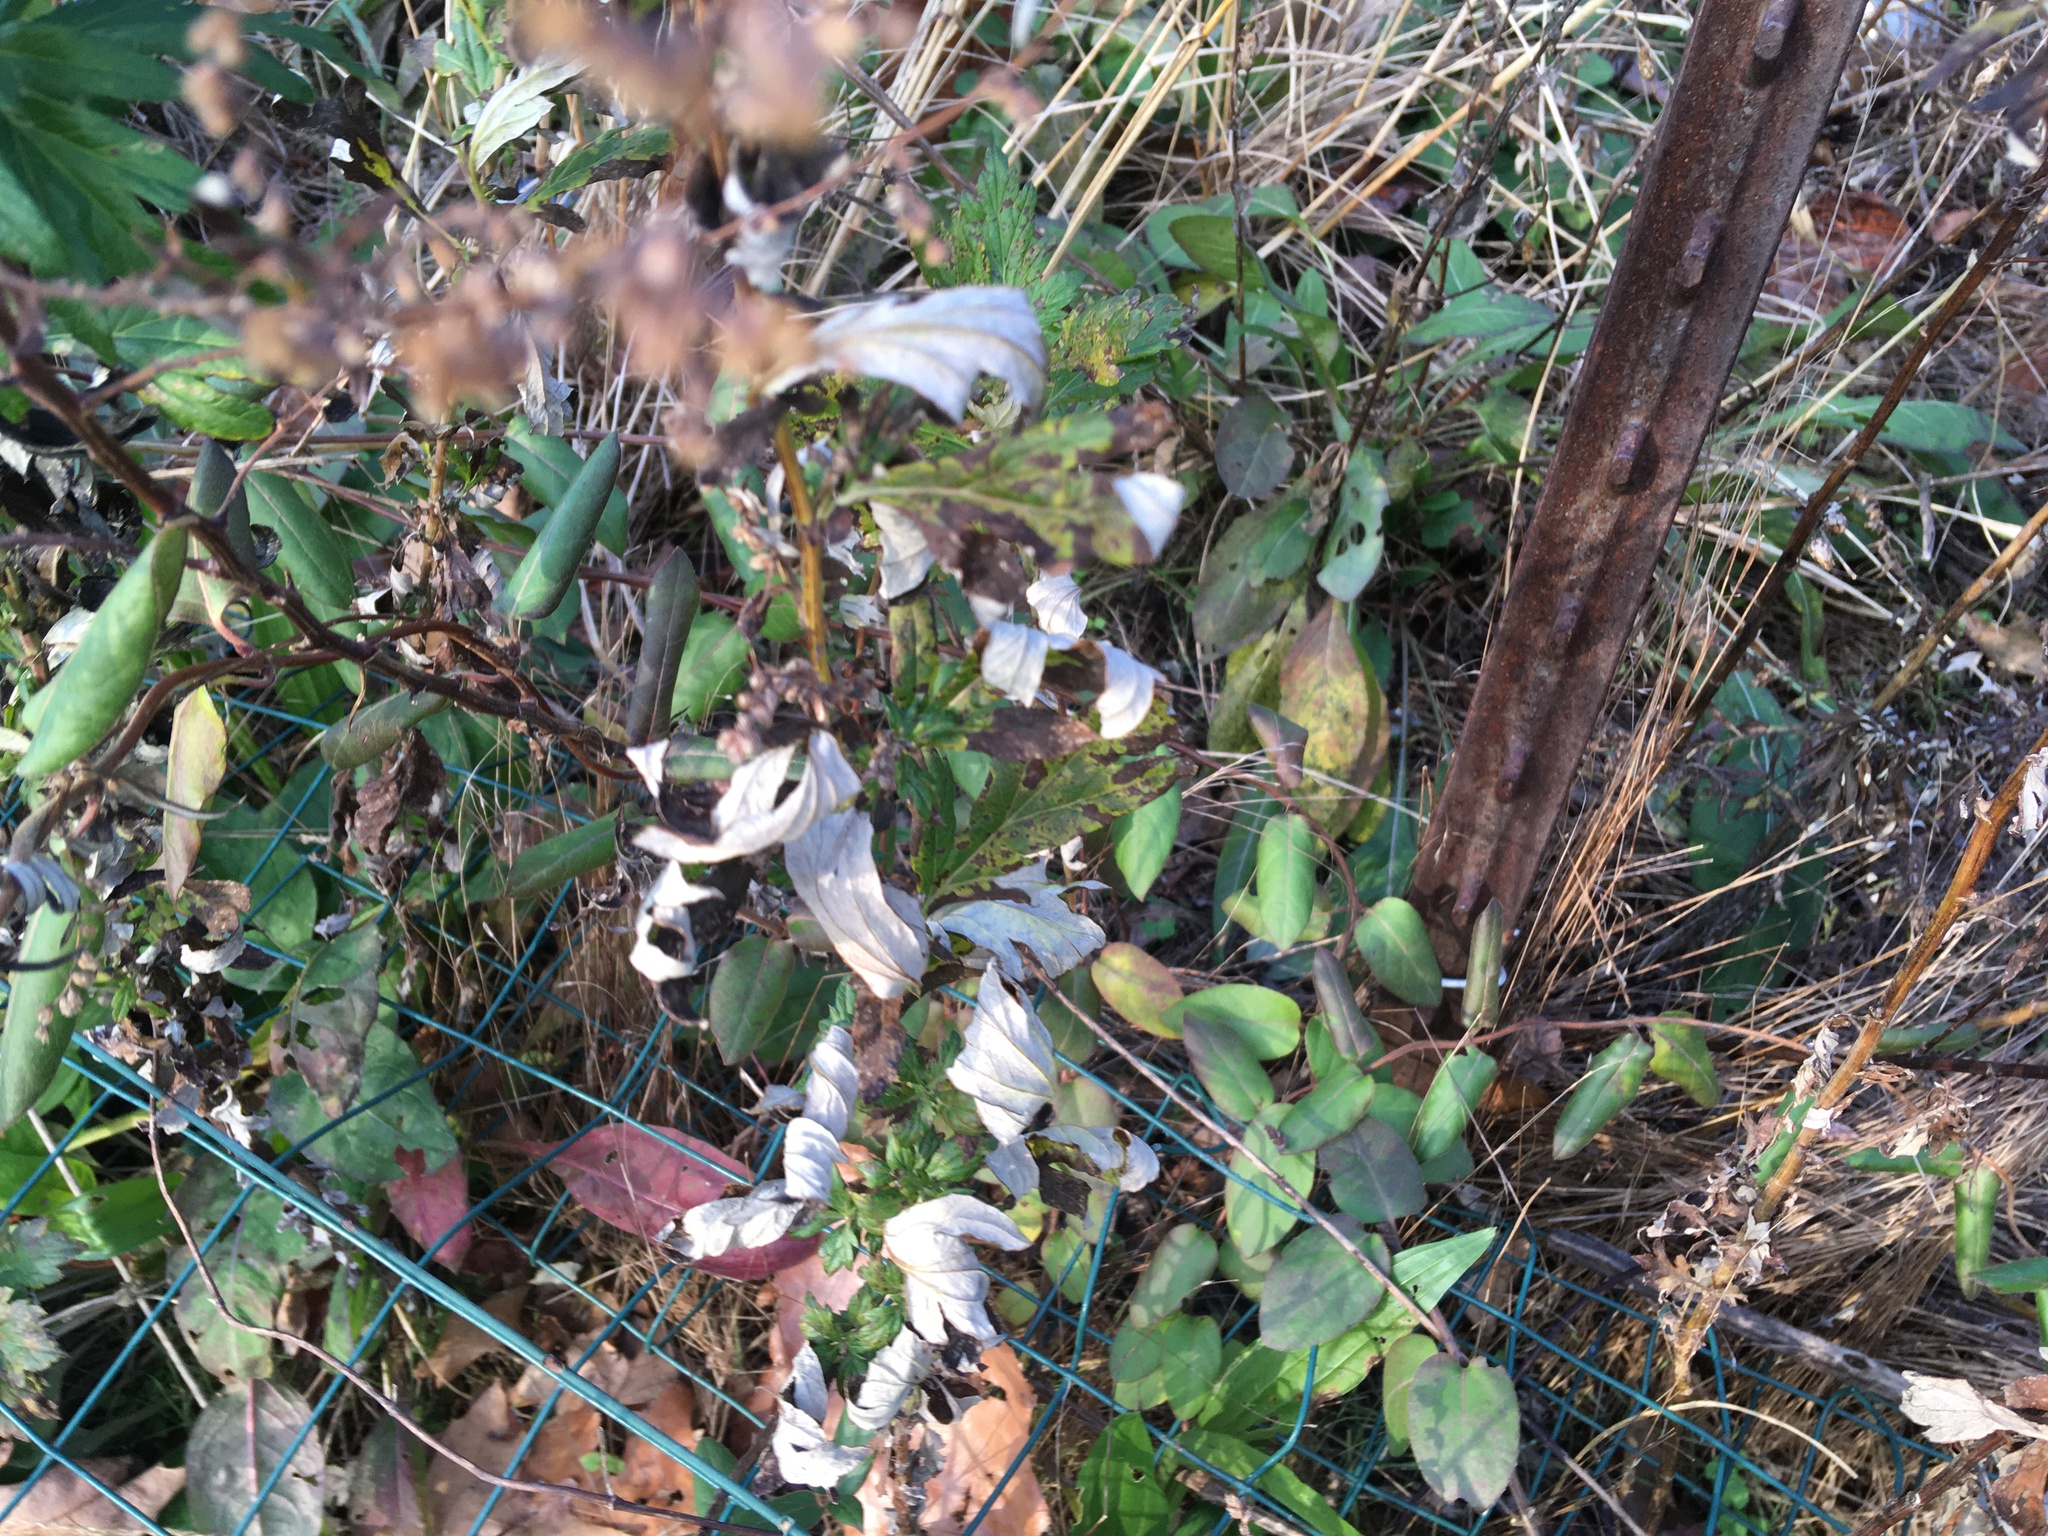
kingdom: Plantae
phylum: Tracheophyta
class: Magnoliopsida
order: Asterales
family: Asteraceae
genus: Artemisia
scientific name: Artemisia vulgaris
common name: Mugwort
